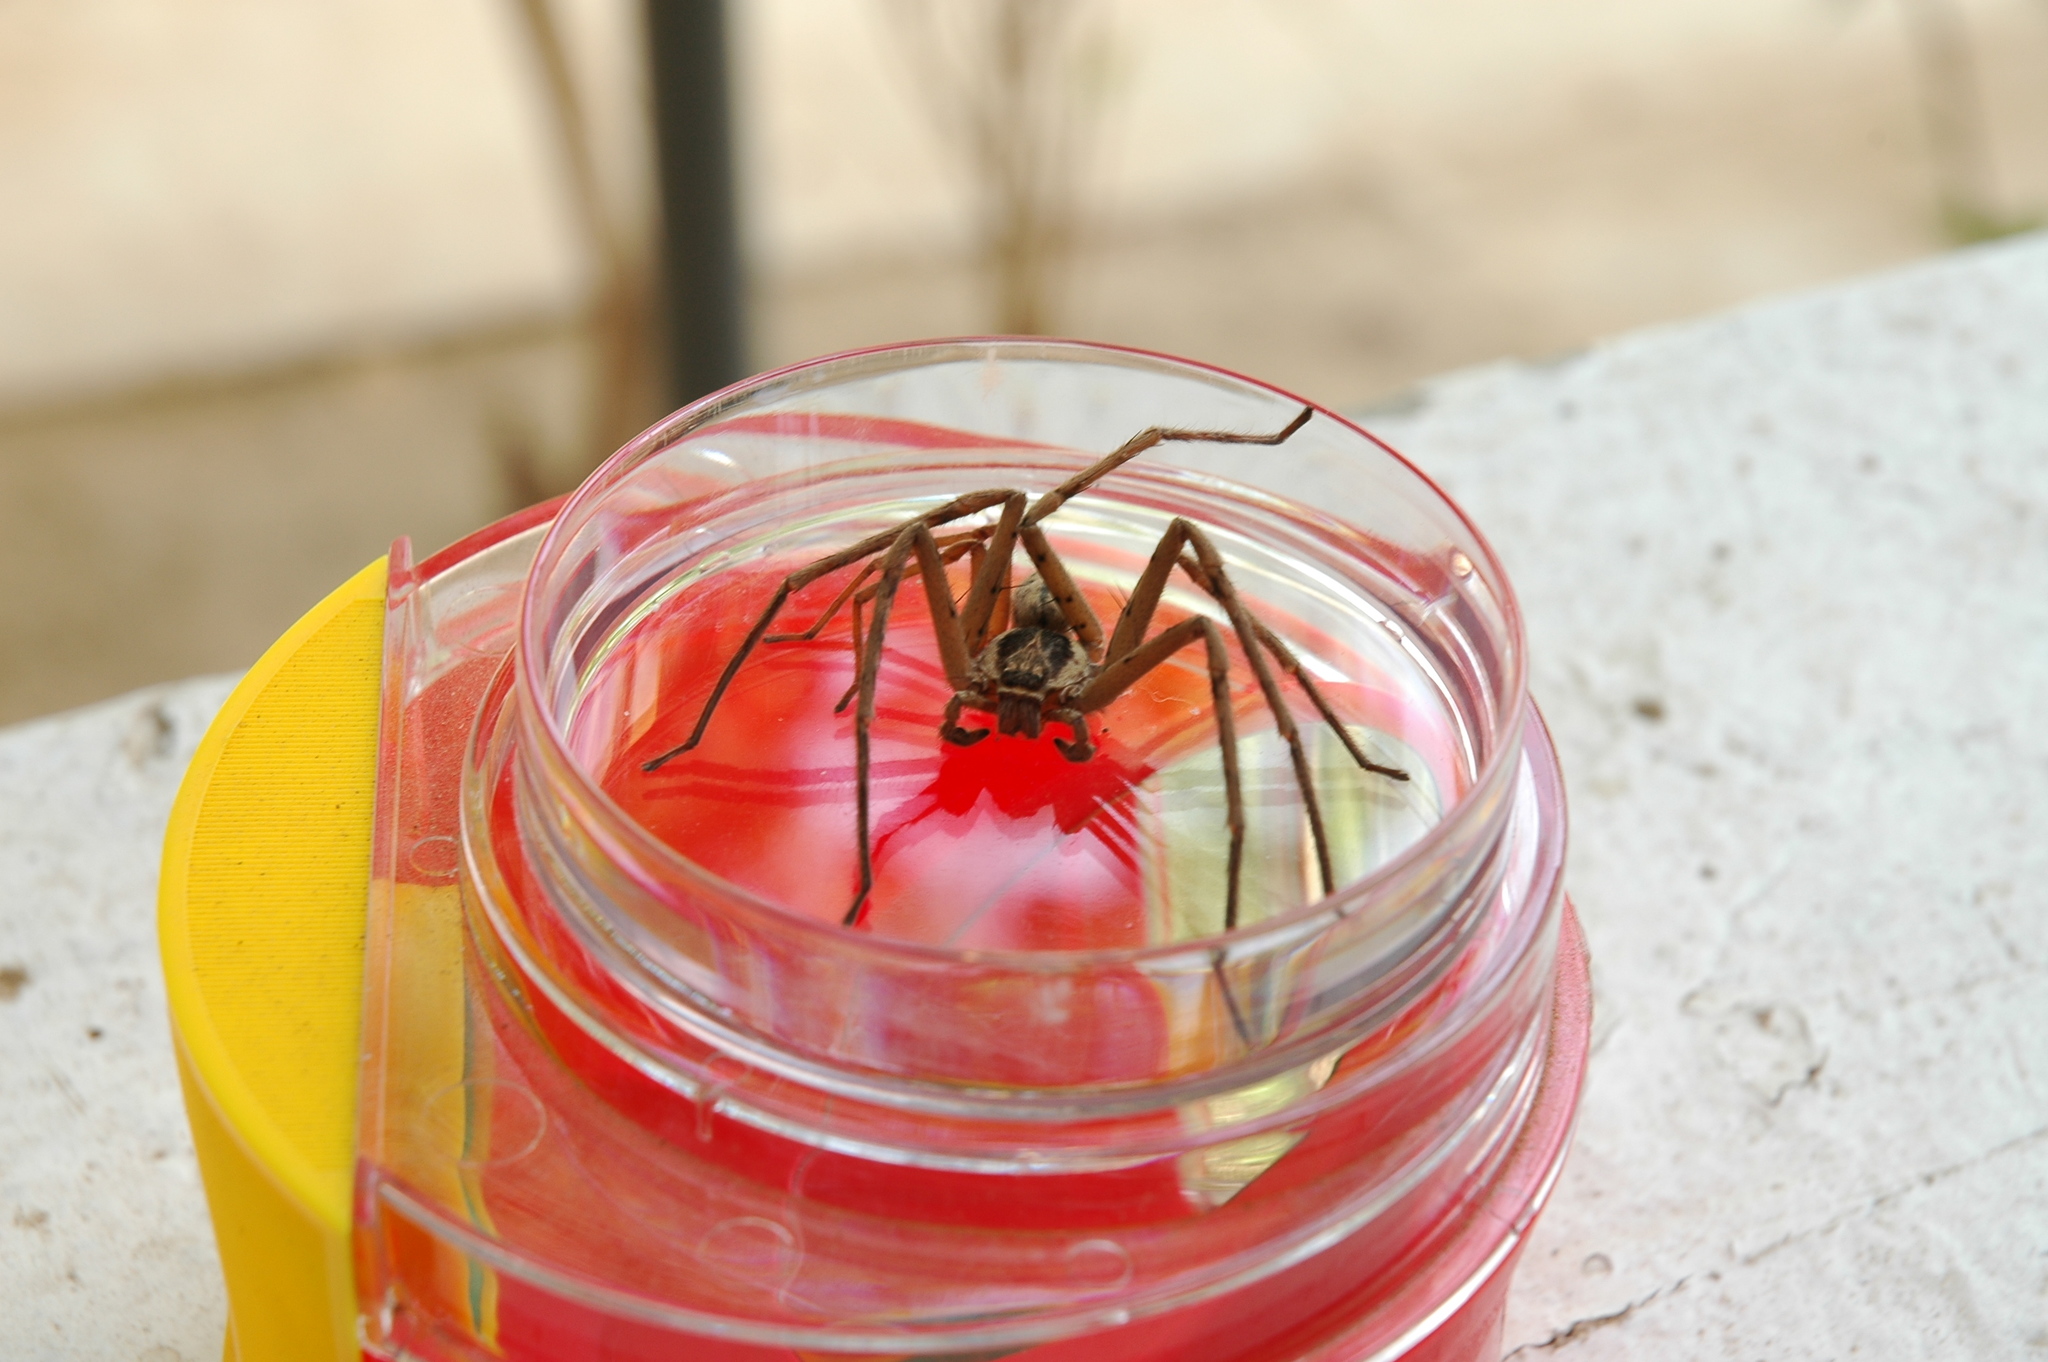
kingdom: Animalia
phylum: Arthropoda
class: Arachnida
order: Araneae
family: Sparassidae
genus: Heteropoda
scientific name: Heteropoda venatoria
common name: Huntsman spider
